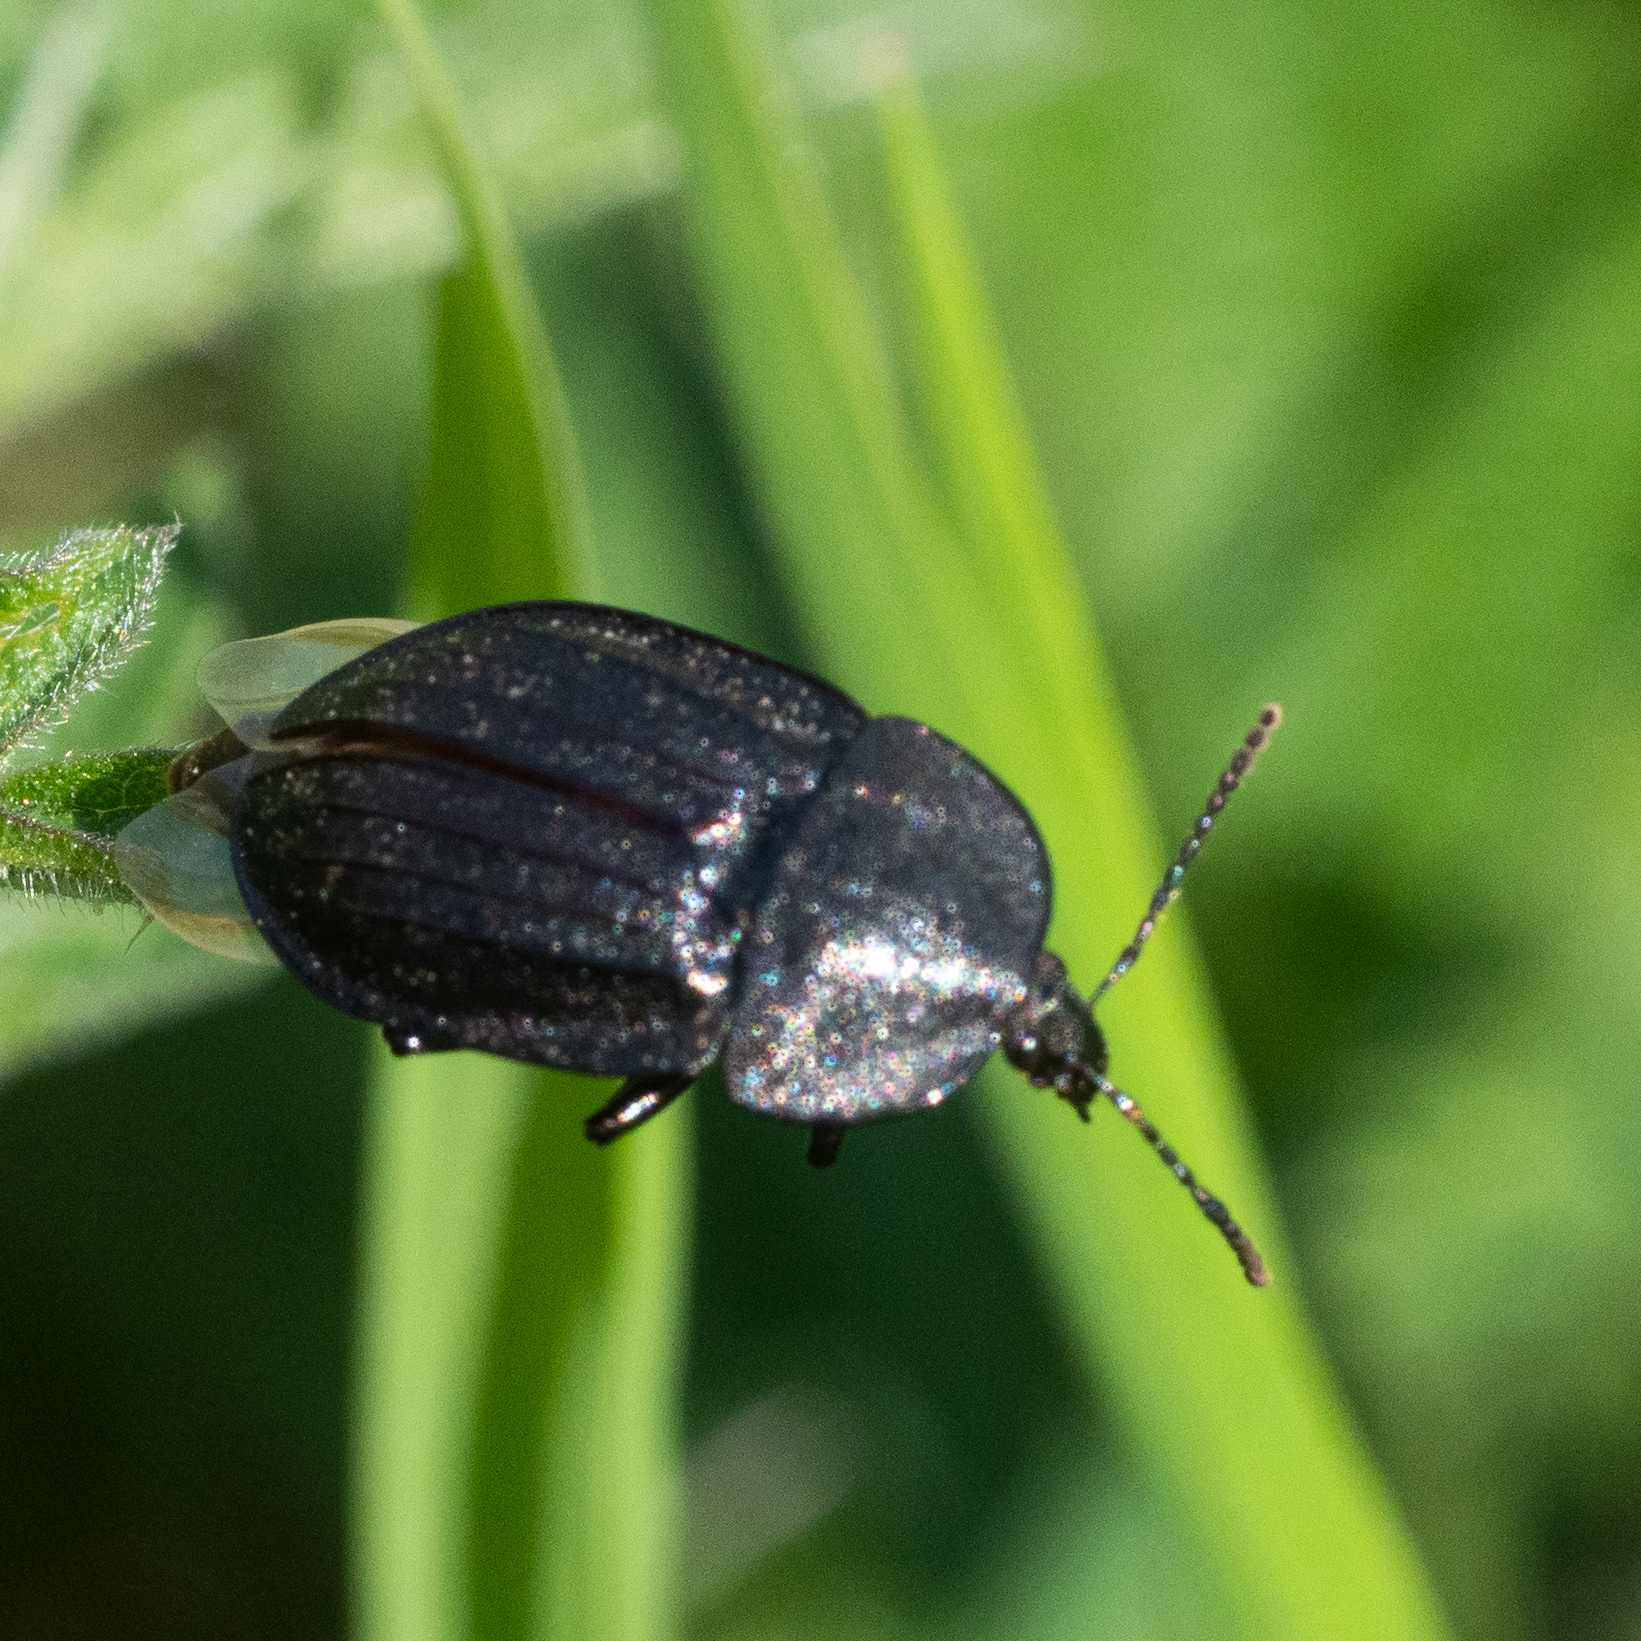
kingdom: Animalia
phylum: Arthropoda
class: Insecta
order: Coleoptera
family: Staphylinidae
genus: Silpha
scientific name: Silpha atrata
